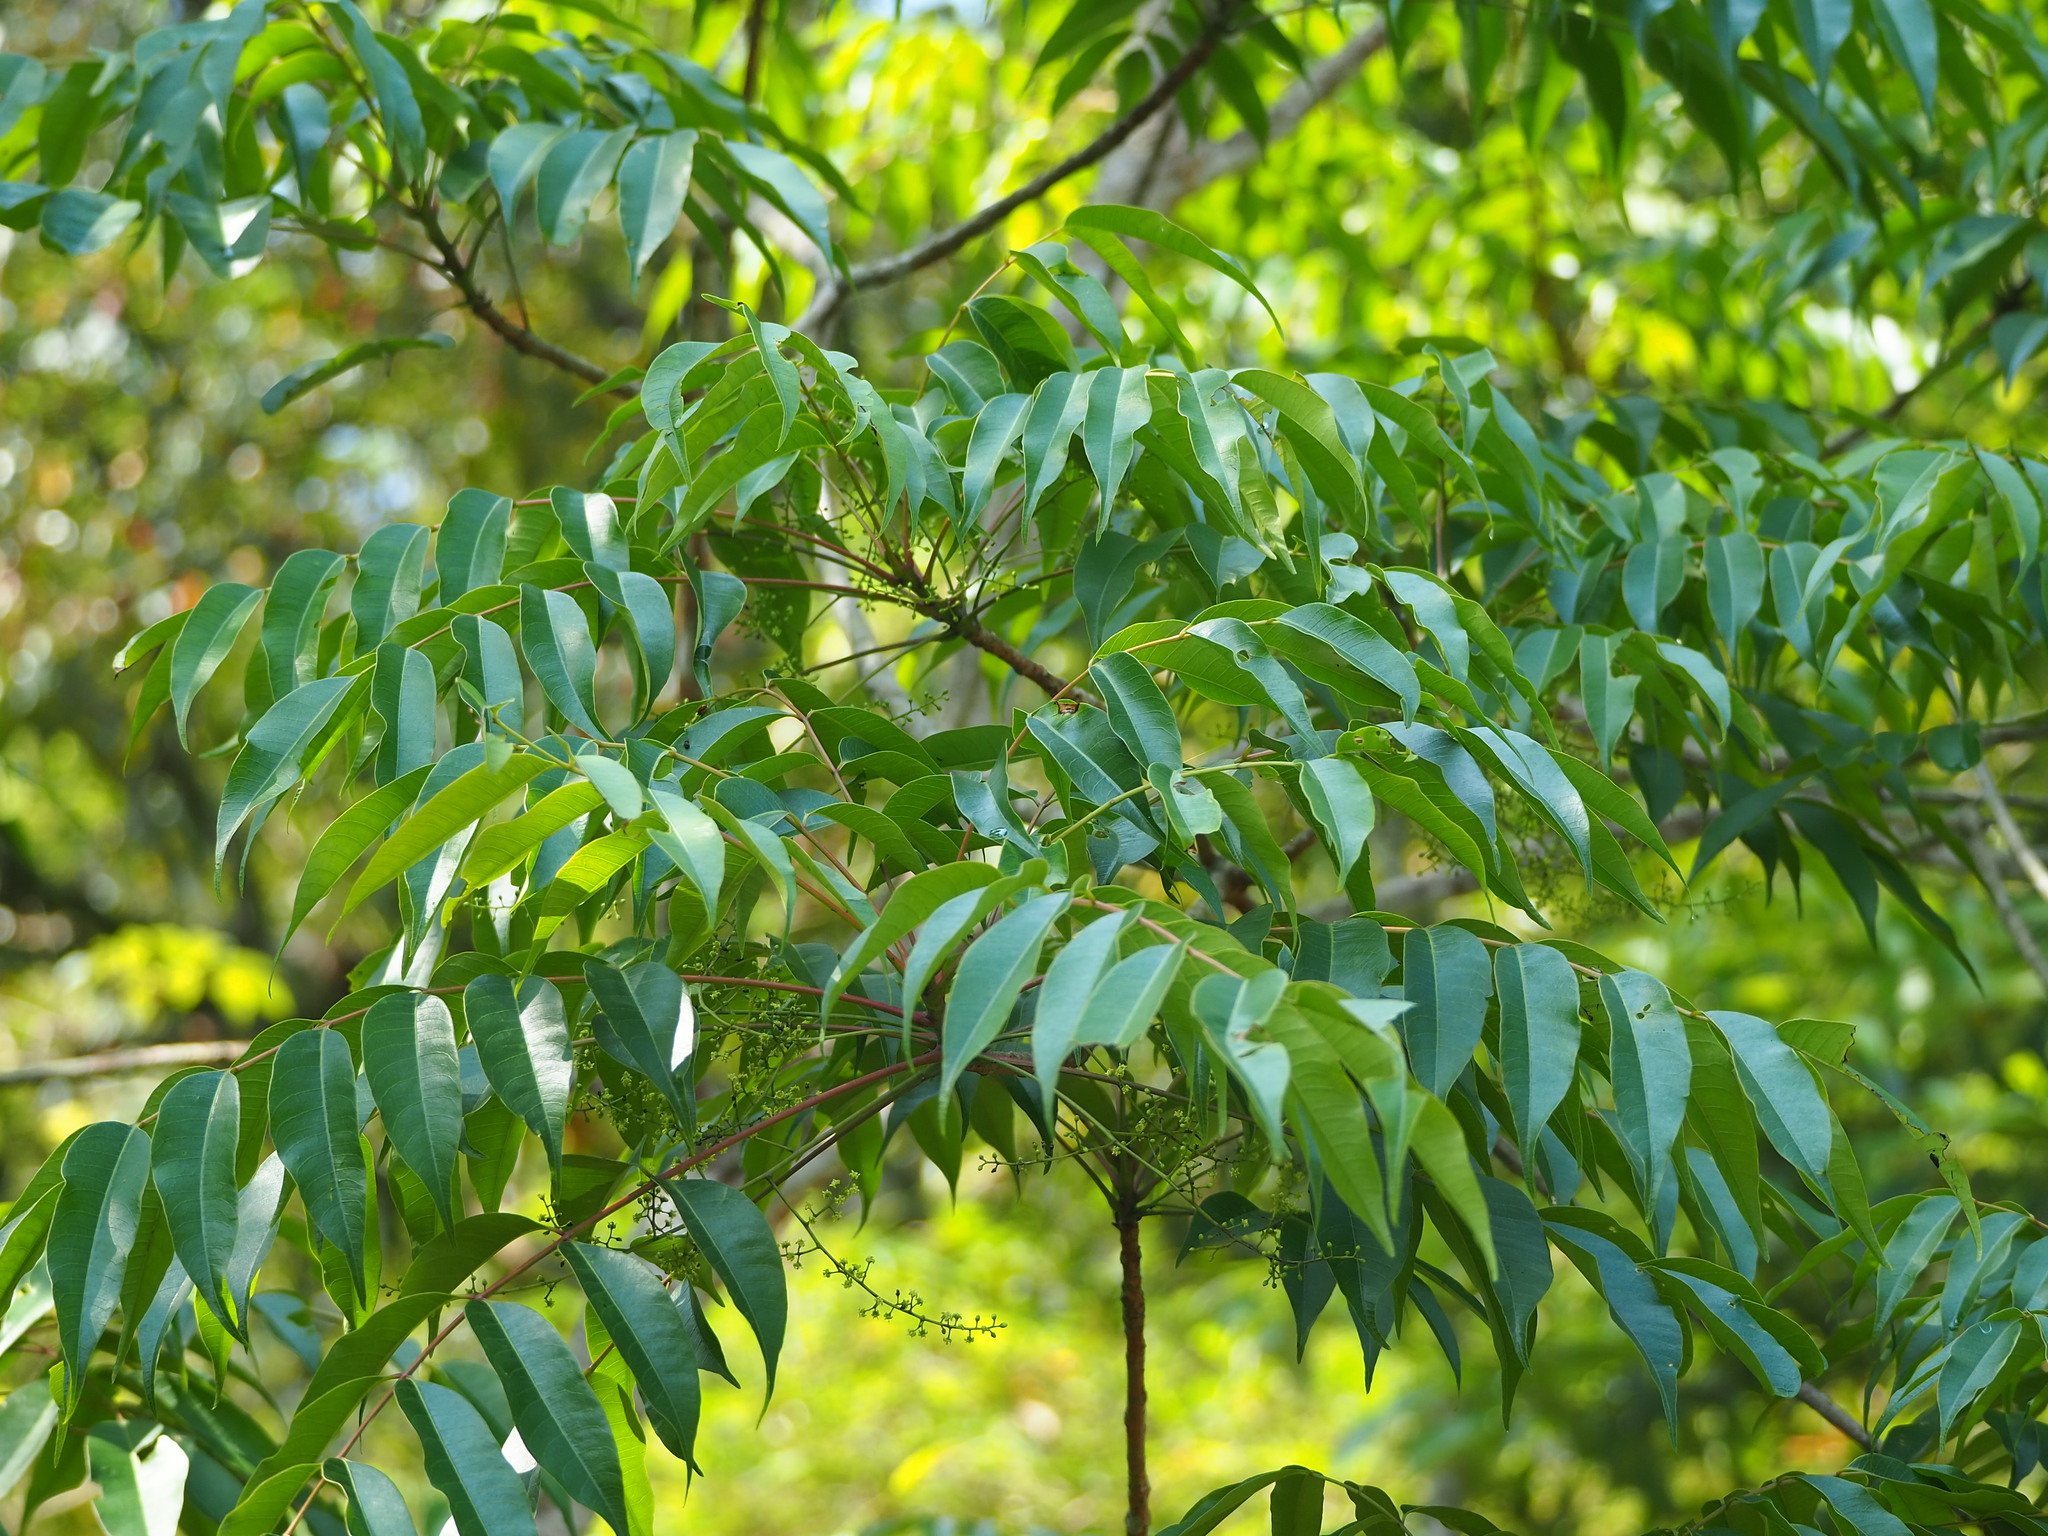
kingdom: Plantae
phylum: Tracheophyta
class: Magnoliopsida
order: Sapindales
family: Anacardiaceae
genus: Toxicodendron
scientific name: Toxicodendron succedaneum
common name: Wax tree
